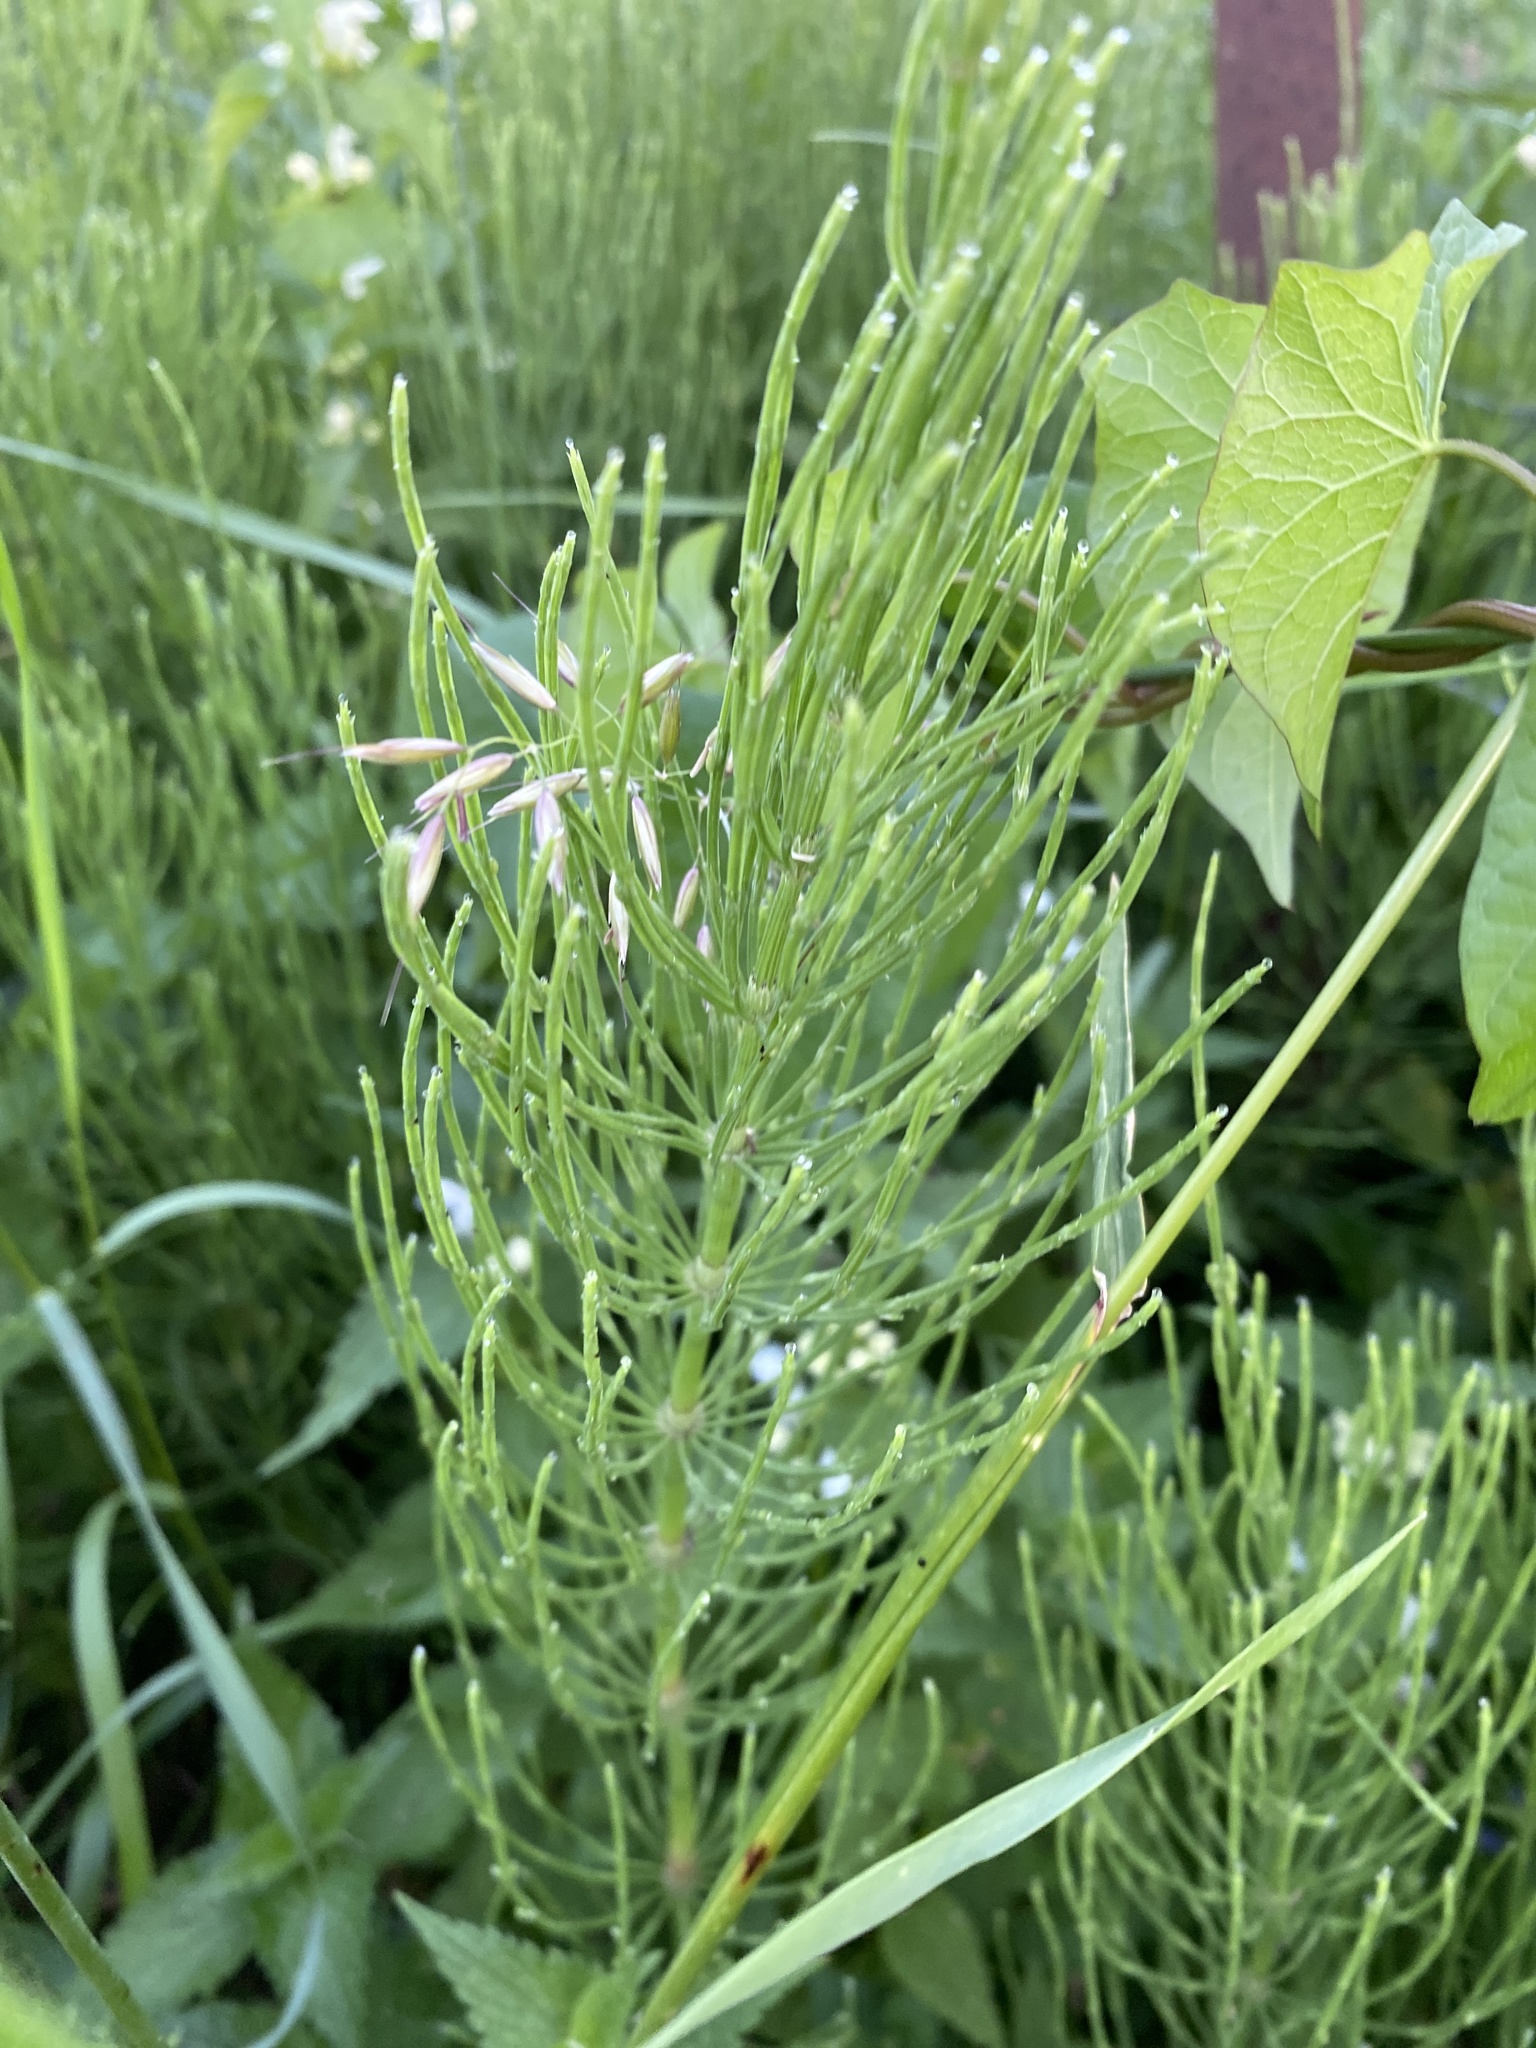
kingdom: Plantae
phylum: Tracheophyta
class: Polypodiopsida
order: Equisetales
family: Equisetaceae
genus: Equisetum
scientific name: Equisetum arvense
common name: Field horsetail
